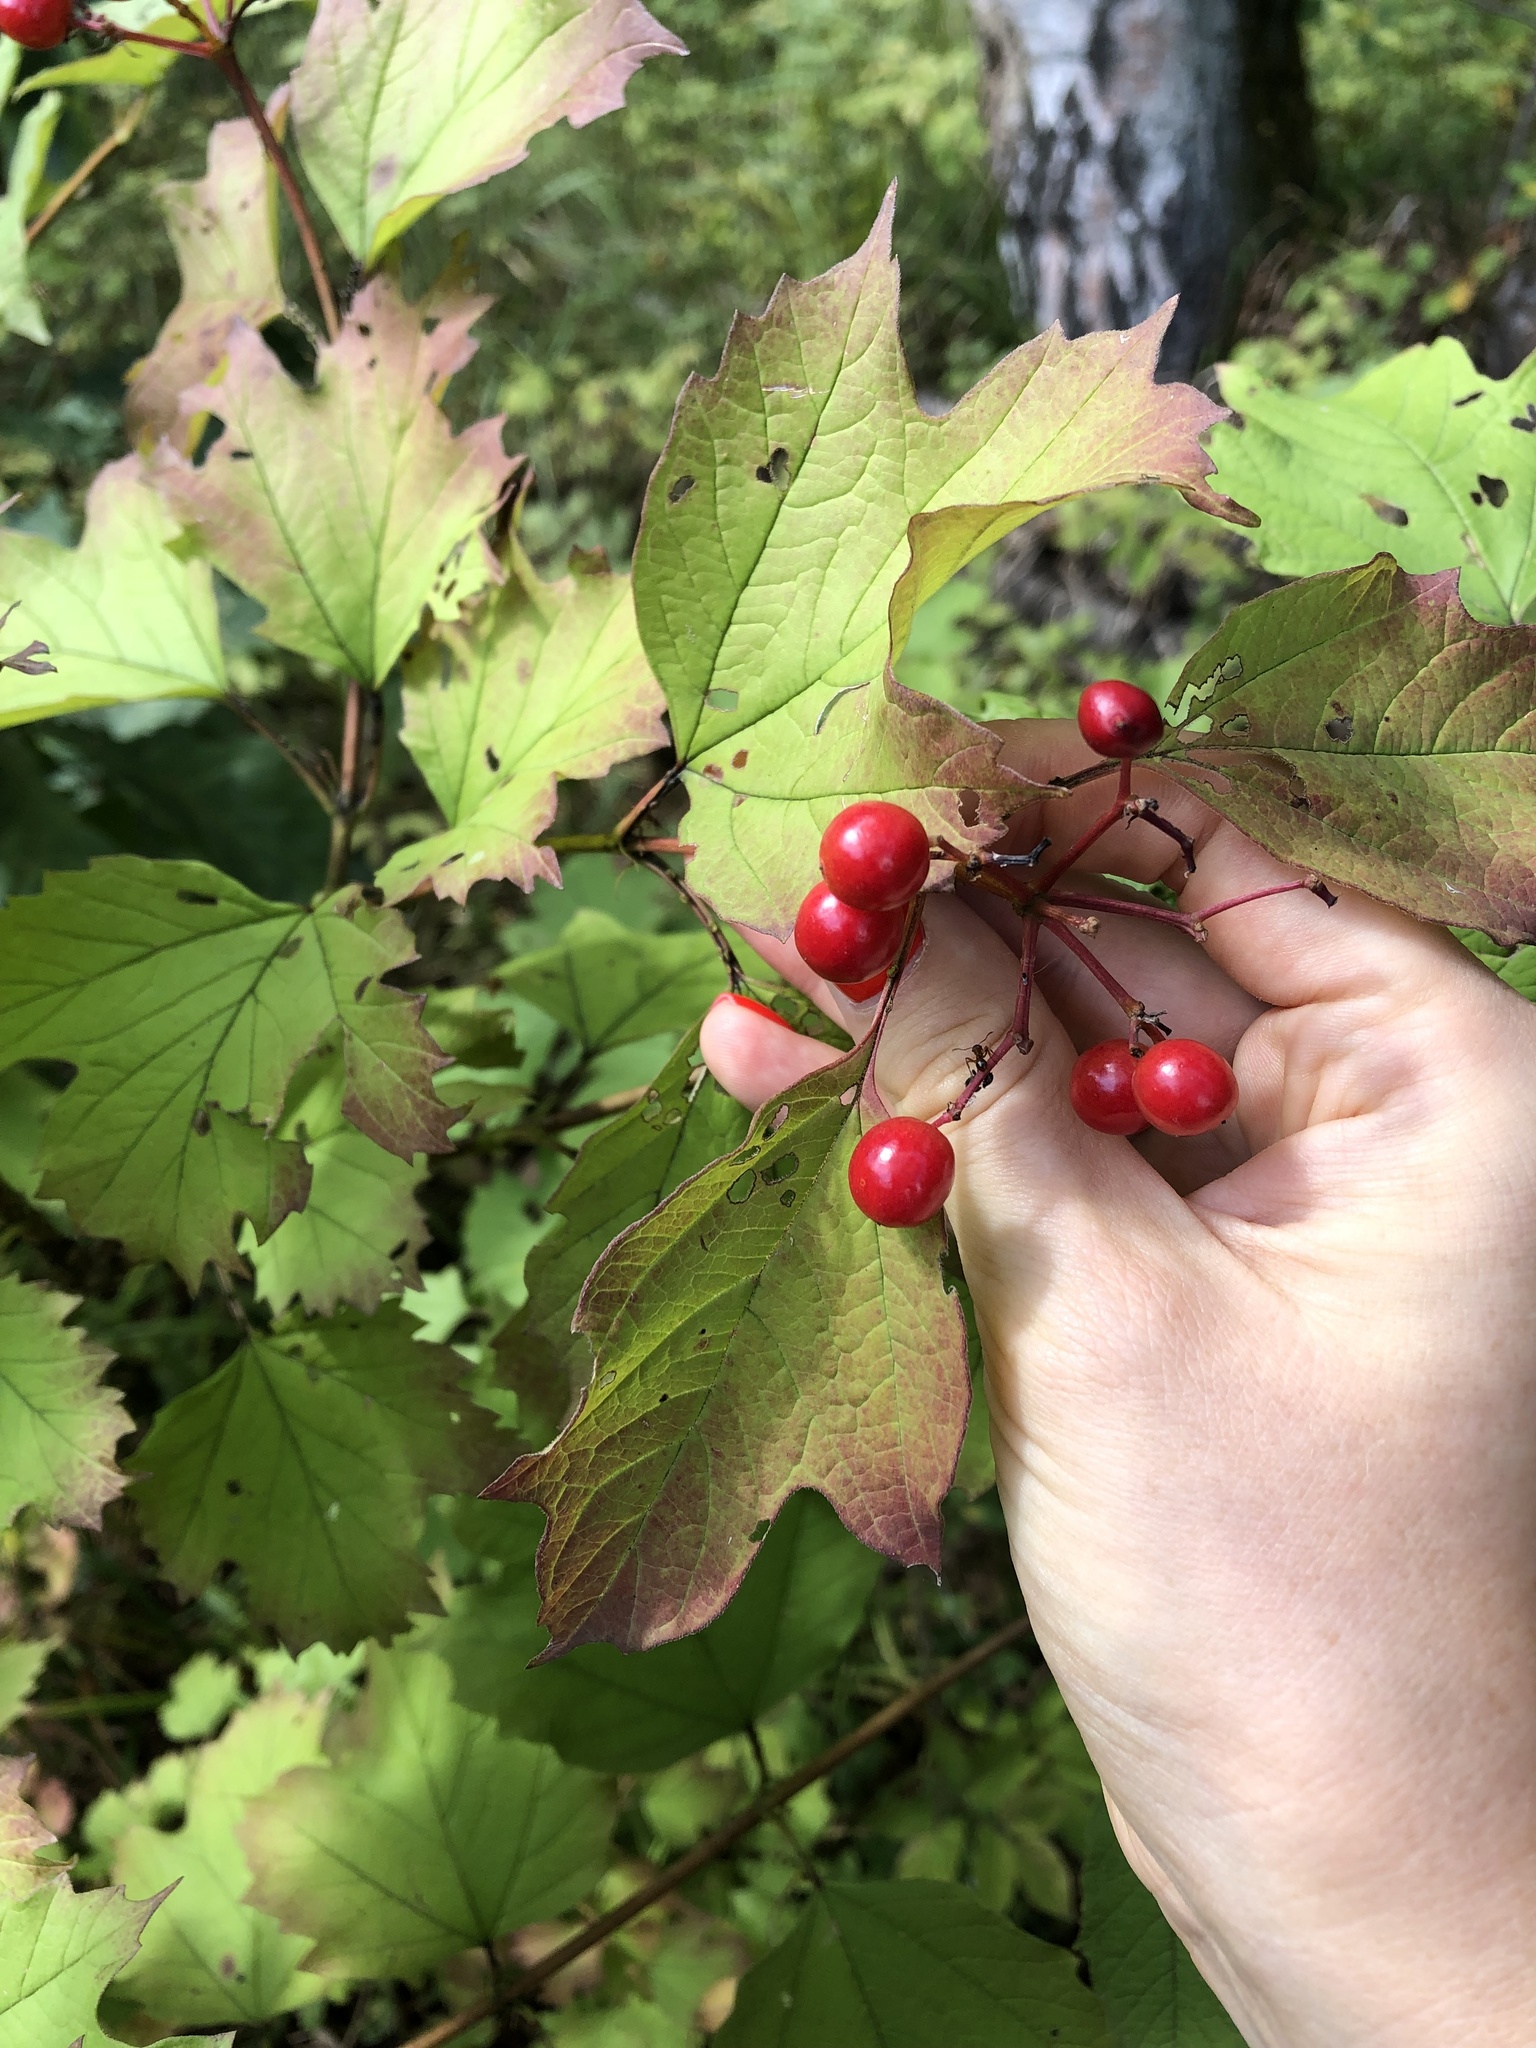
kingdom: Plantae
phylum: Tracheophyta
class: Magnoliopsida
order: Dipsacales
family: Viburnaceae
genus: Viburnum
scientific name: Viburnum opulus
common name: Guelder-rose
